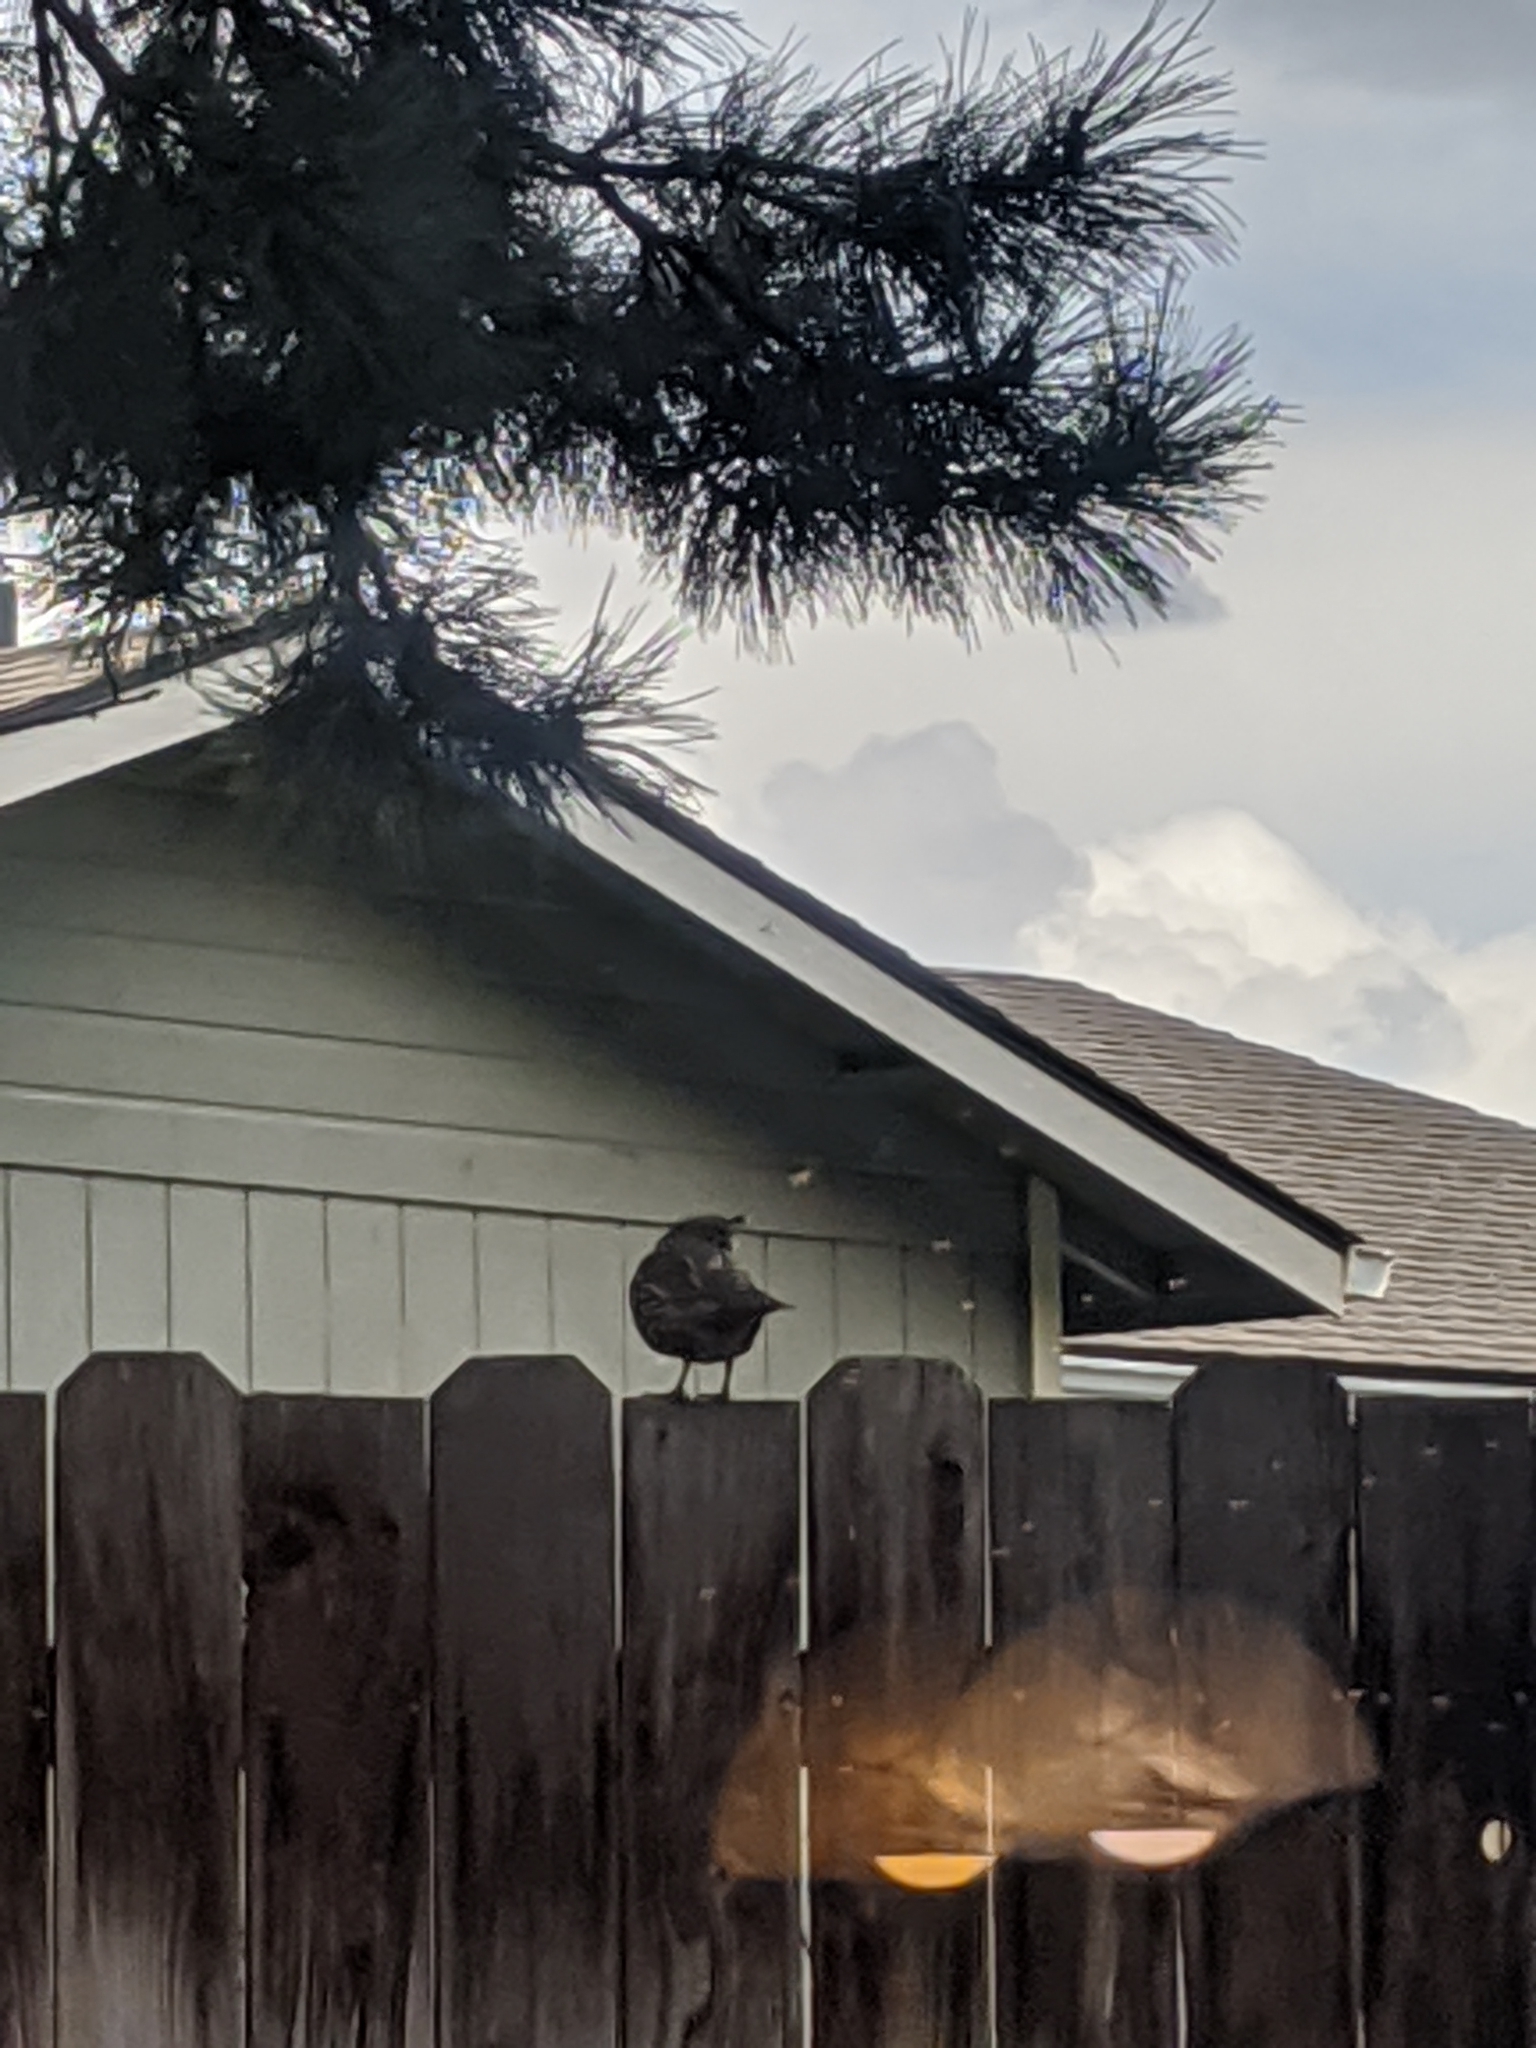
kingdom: Animalia
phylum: Chordata
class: Aves
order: Galliformes
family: Odontophoridae
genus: Callipepla
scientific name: Callipepla californica
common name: California quail
